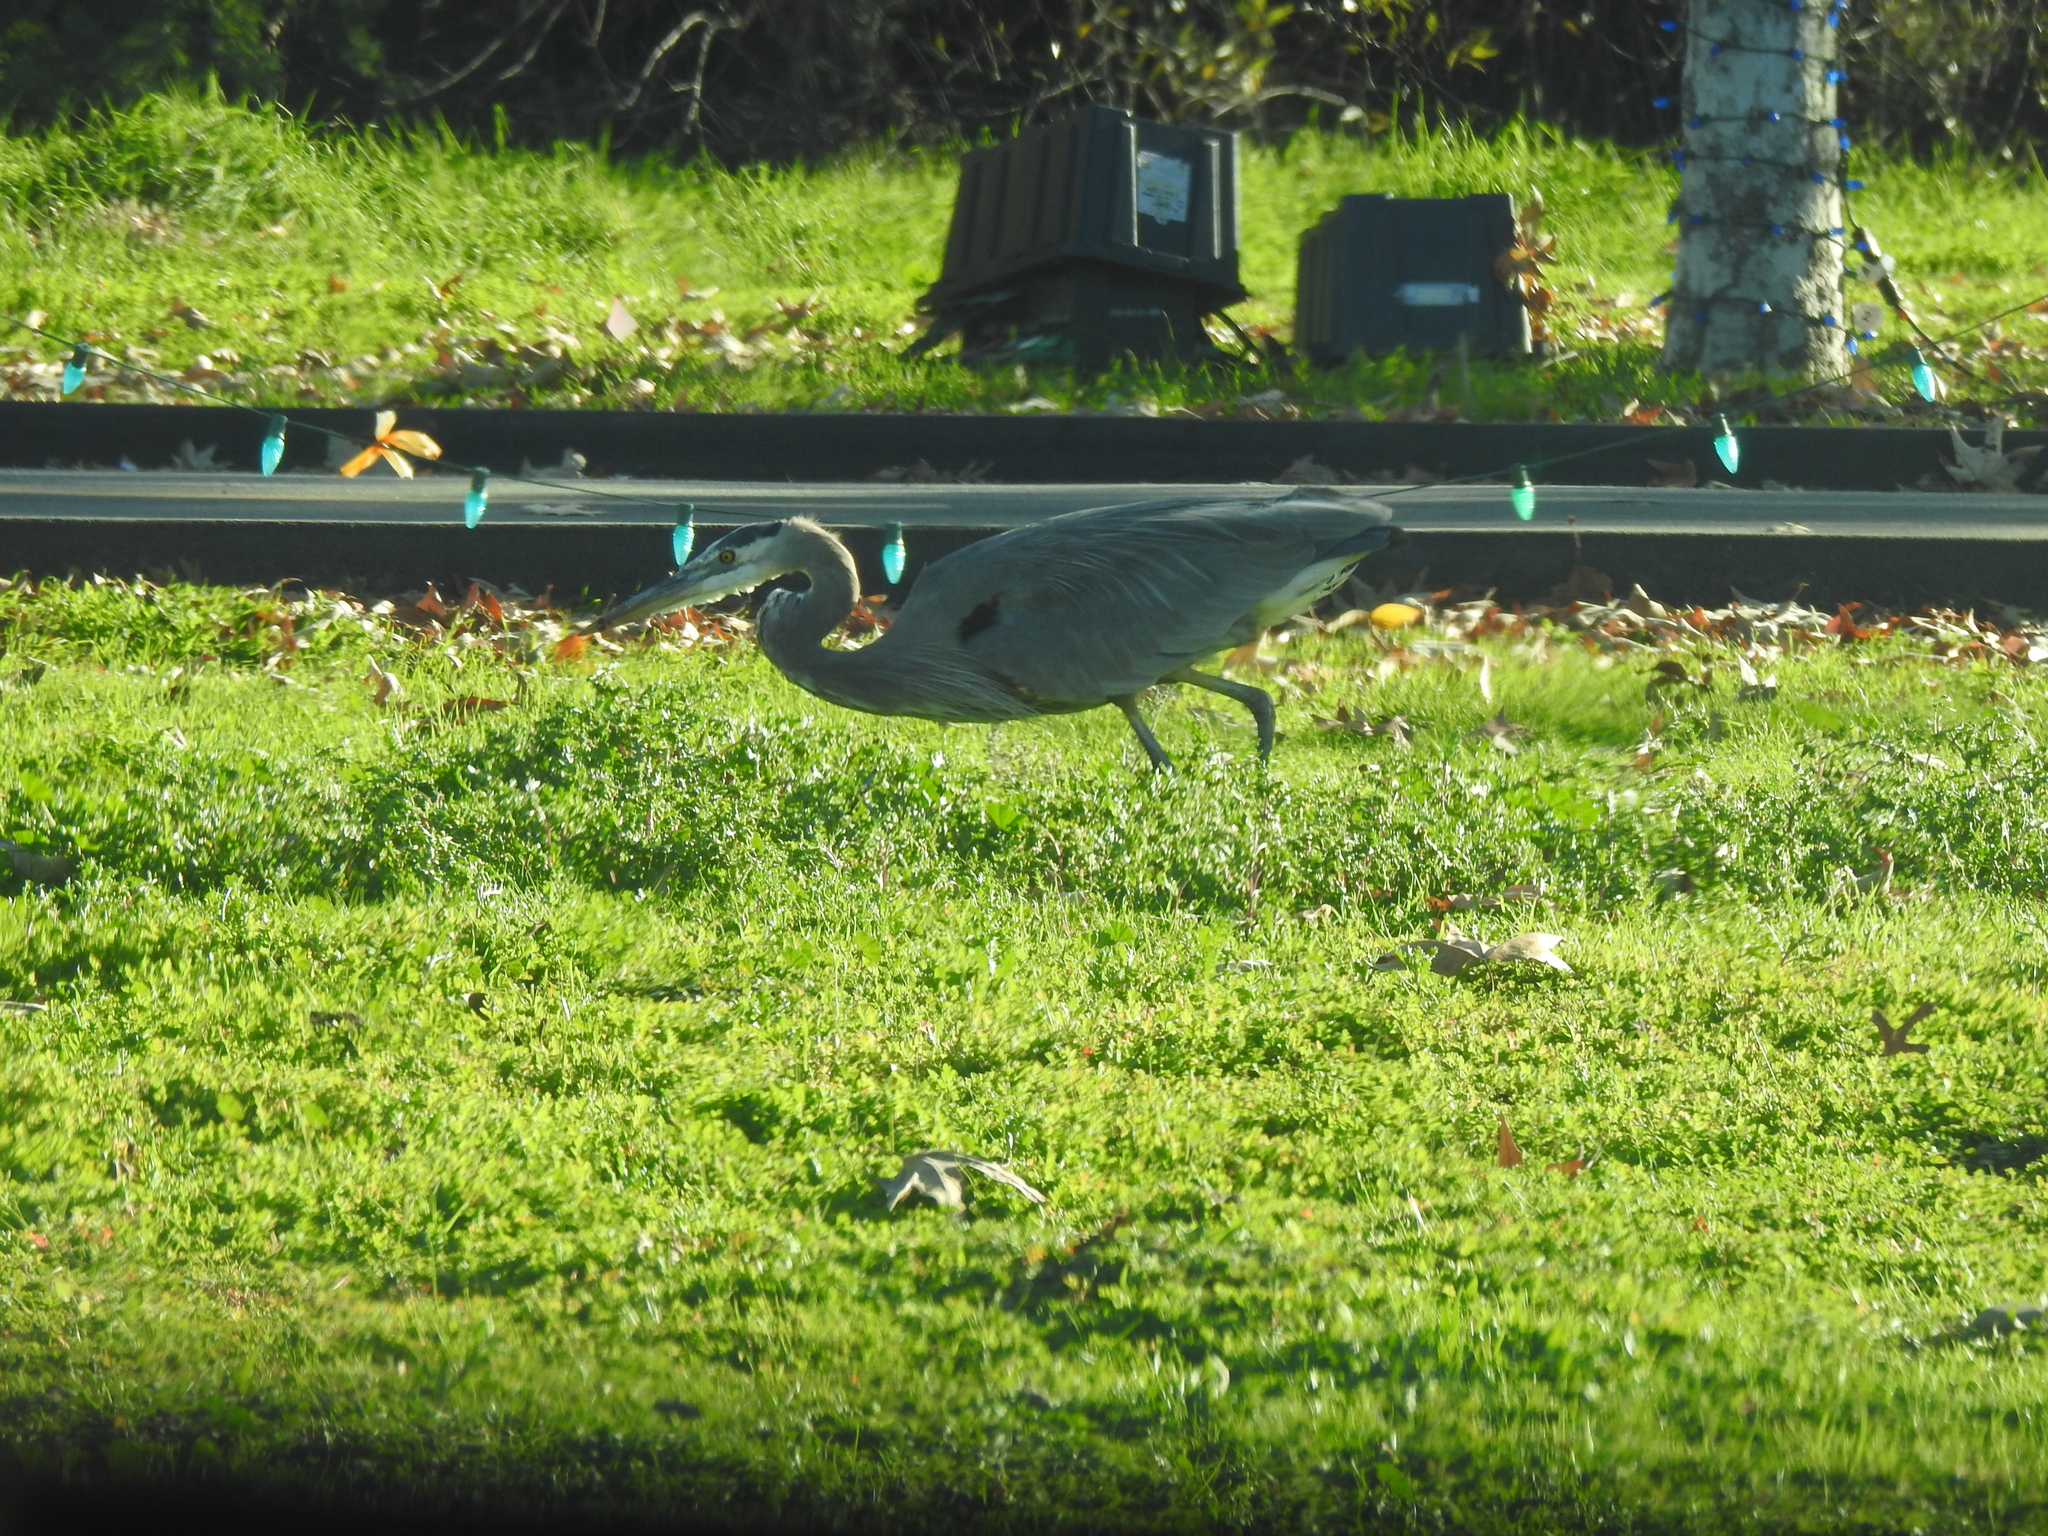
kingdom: Animalia
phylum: Chordata
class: Aves
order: Pelecaniformes
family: Ardeidae
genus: Ardea
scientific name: Ardea herodias
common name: Great blue heron
